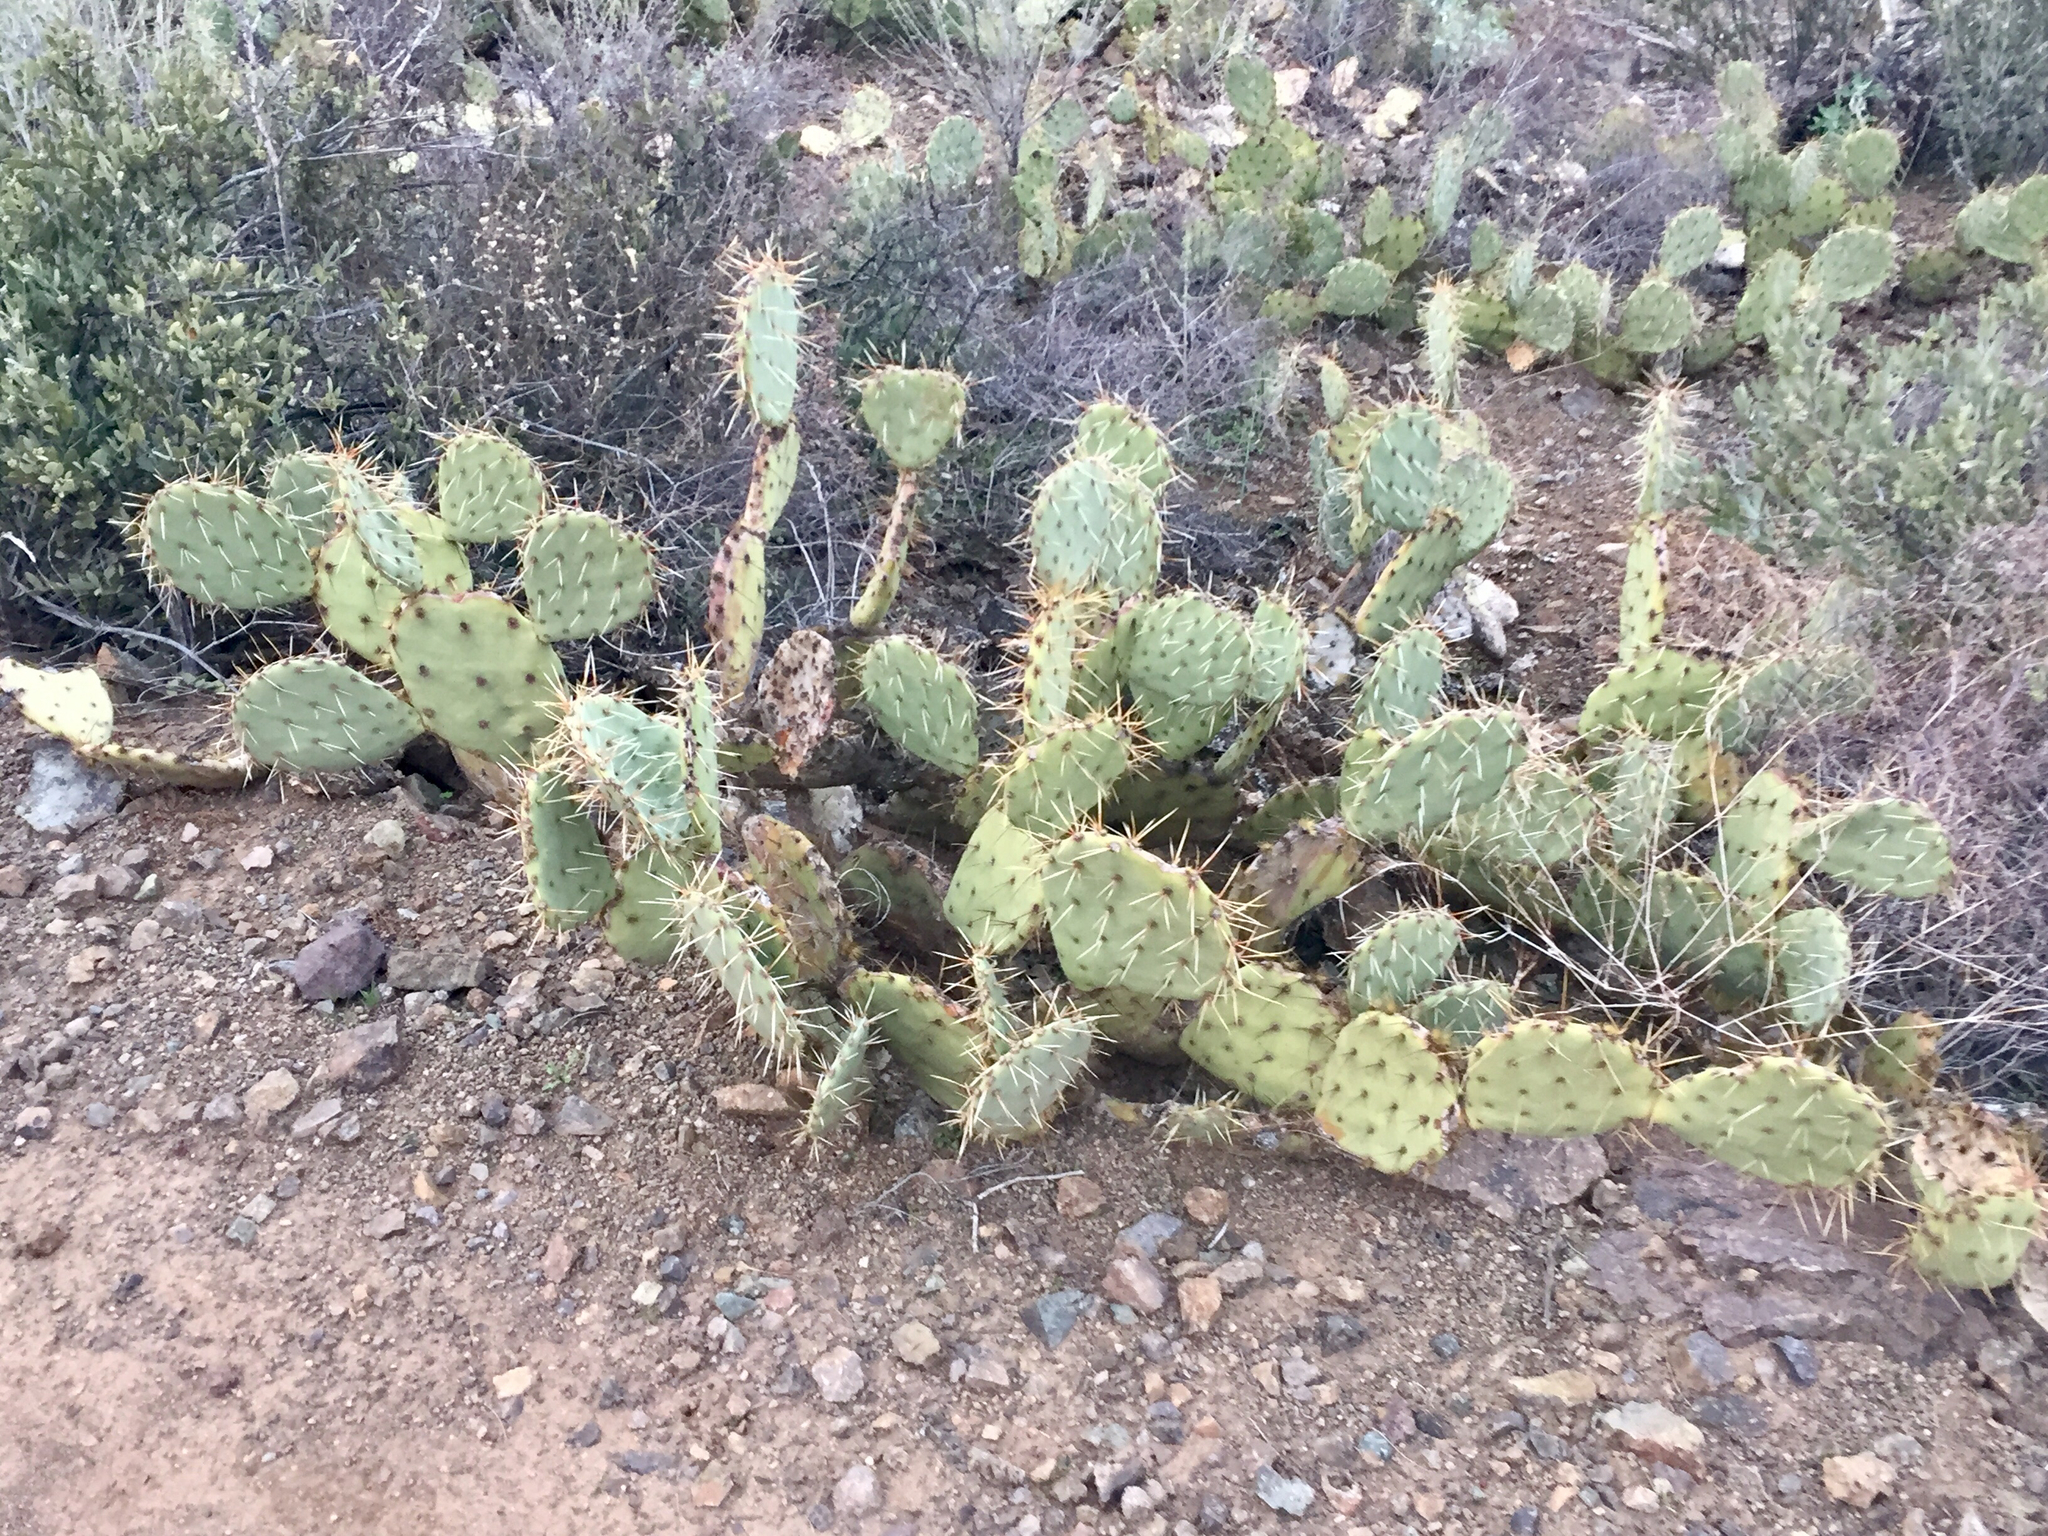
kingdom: Plantae
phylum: Tracheophyta
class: Magnoliopsida
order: Caryophyllales
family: Cactaceae
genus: Opuntia
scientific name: Opuntia engelmannii
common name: Cactus-apple
